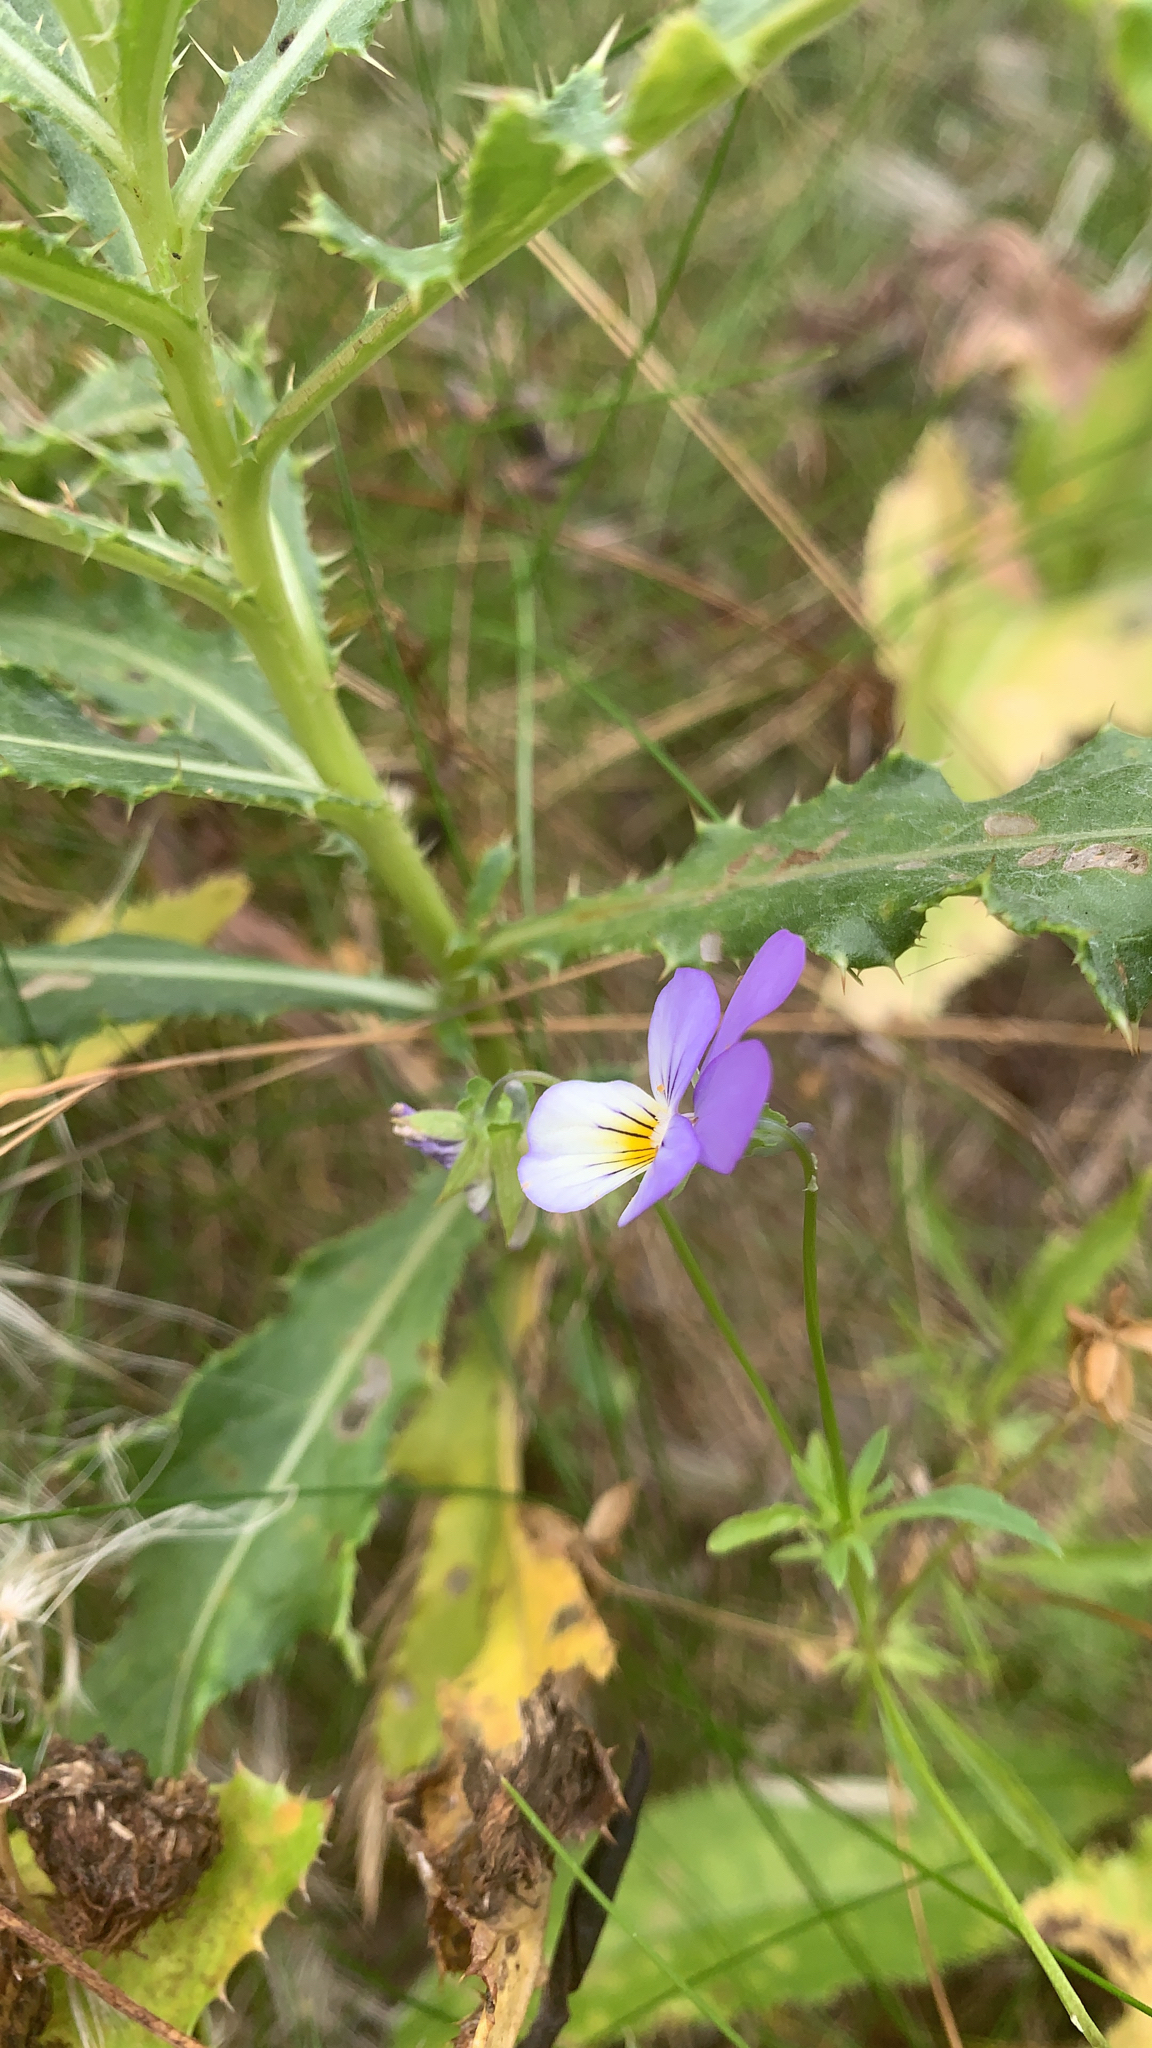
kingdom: Plantae
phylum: Tracheophyta
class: Magnoliopsida
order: Malpighiales
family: Violaceae
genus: Viola
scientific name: Viola tricolor
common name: Pansy
